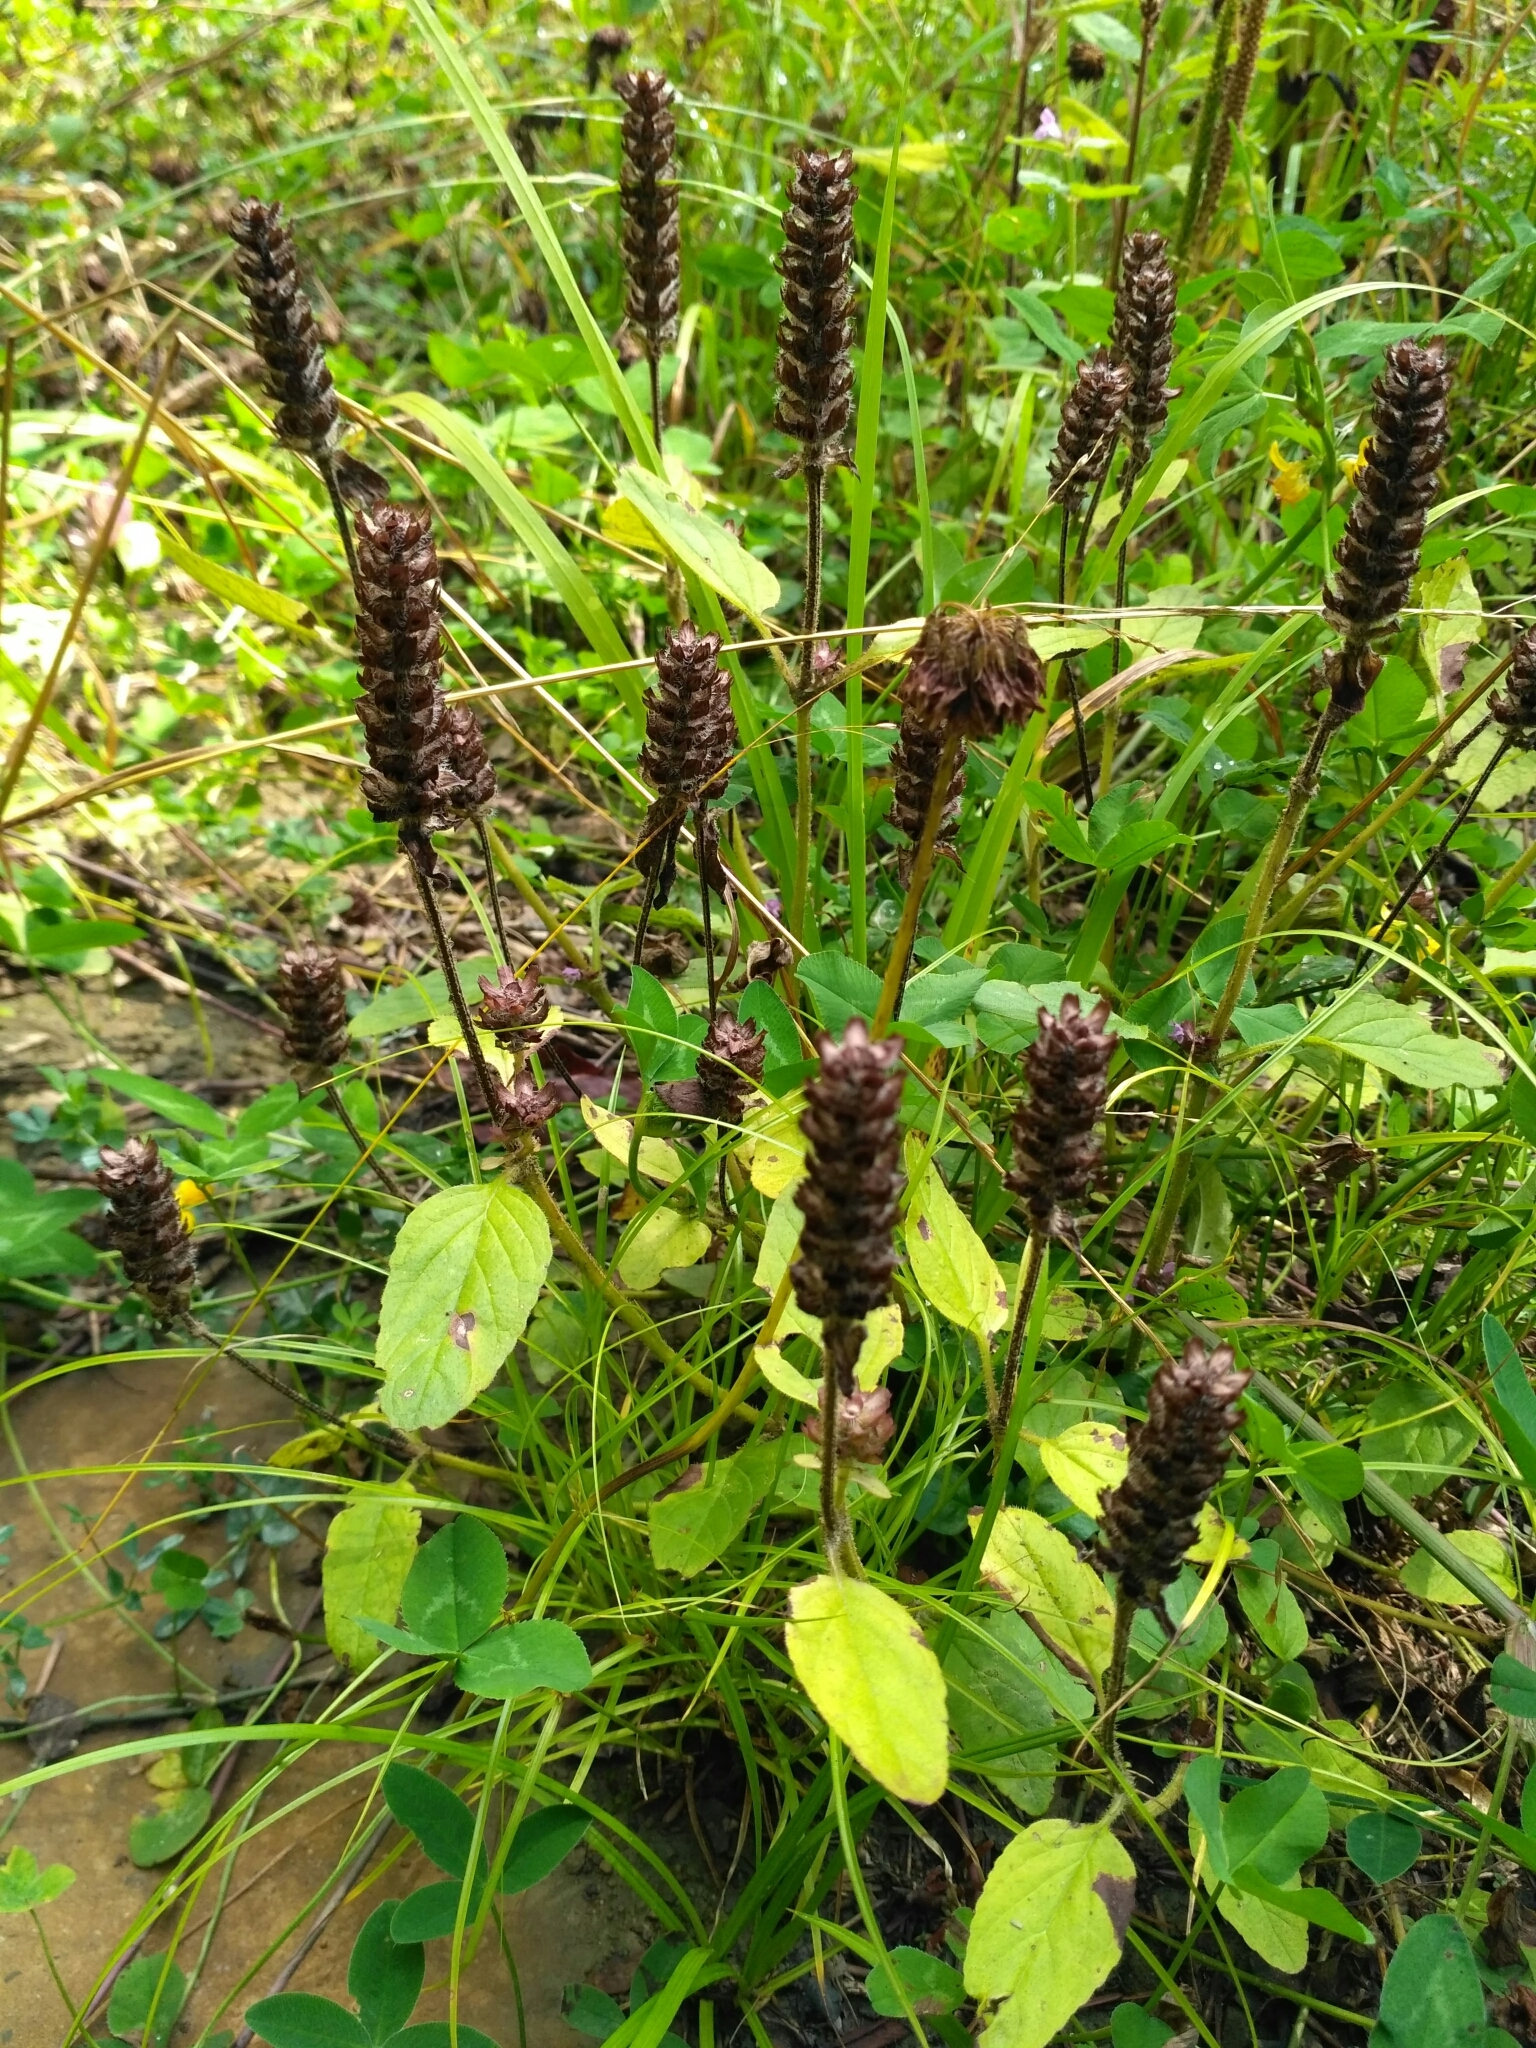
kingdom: Plantae
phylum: Tracheophyta
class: Magnoliopsida
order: Lamiales
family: Lamiaceae
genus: Prunella
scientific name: Prunella vulgaris
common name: Heal-all
